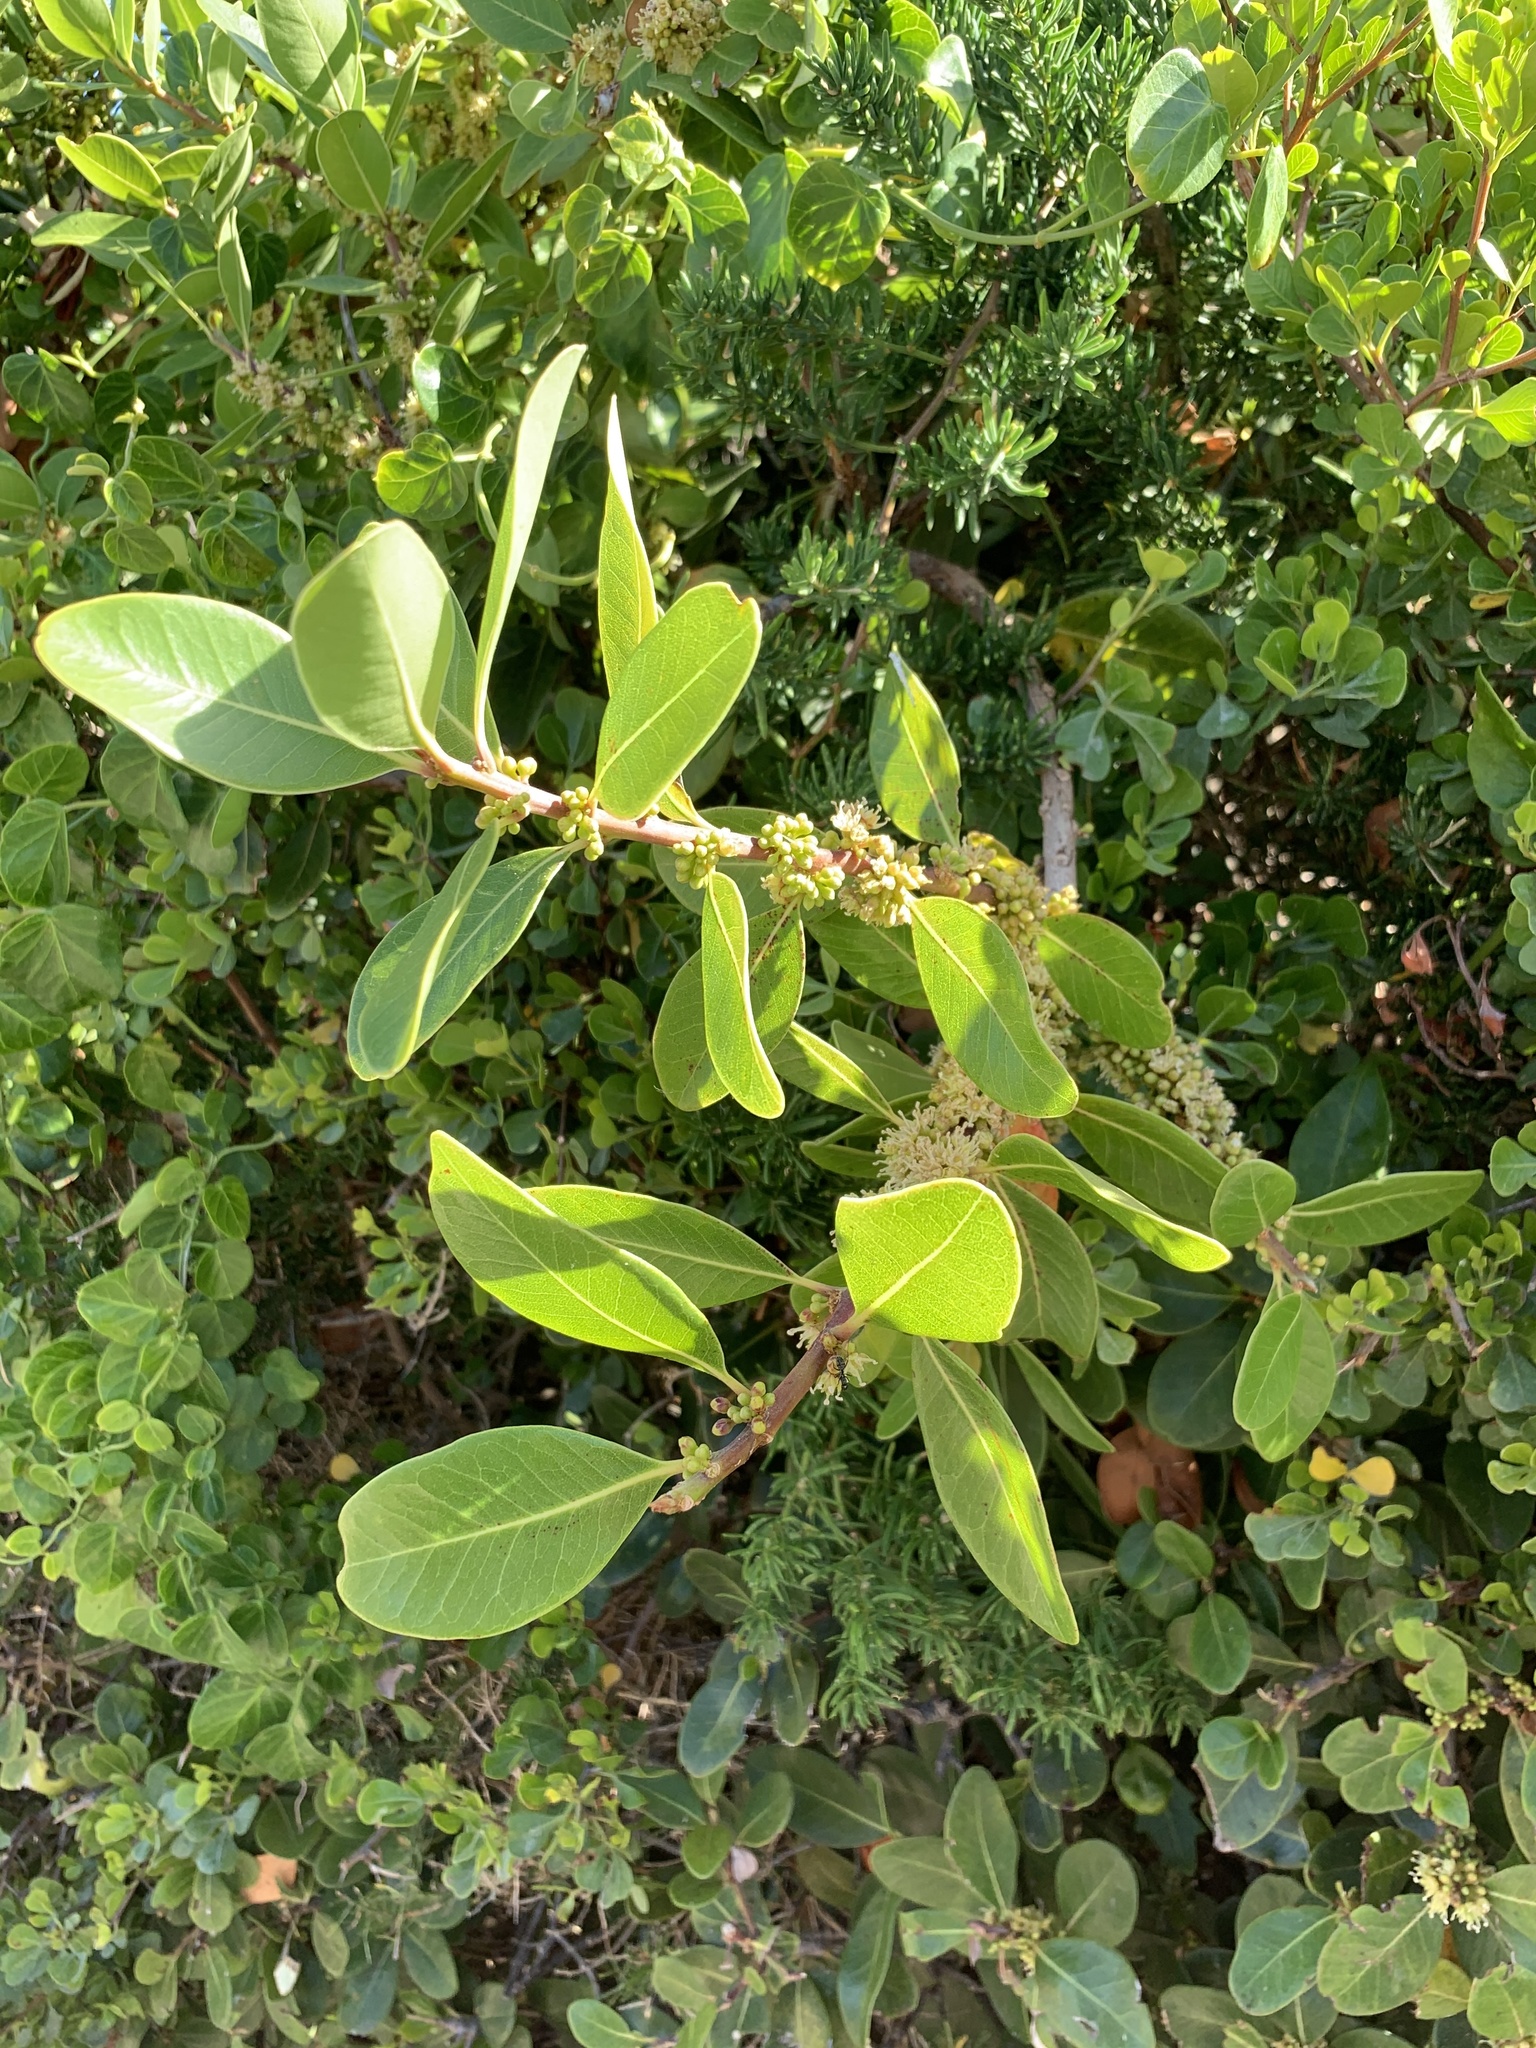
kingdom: Plantae
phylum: Tracheophyta
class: Magnoliopsida
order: Ericales
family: Sapotaceae
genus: Sideroxylon
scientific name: Sideroxylon inerme
